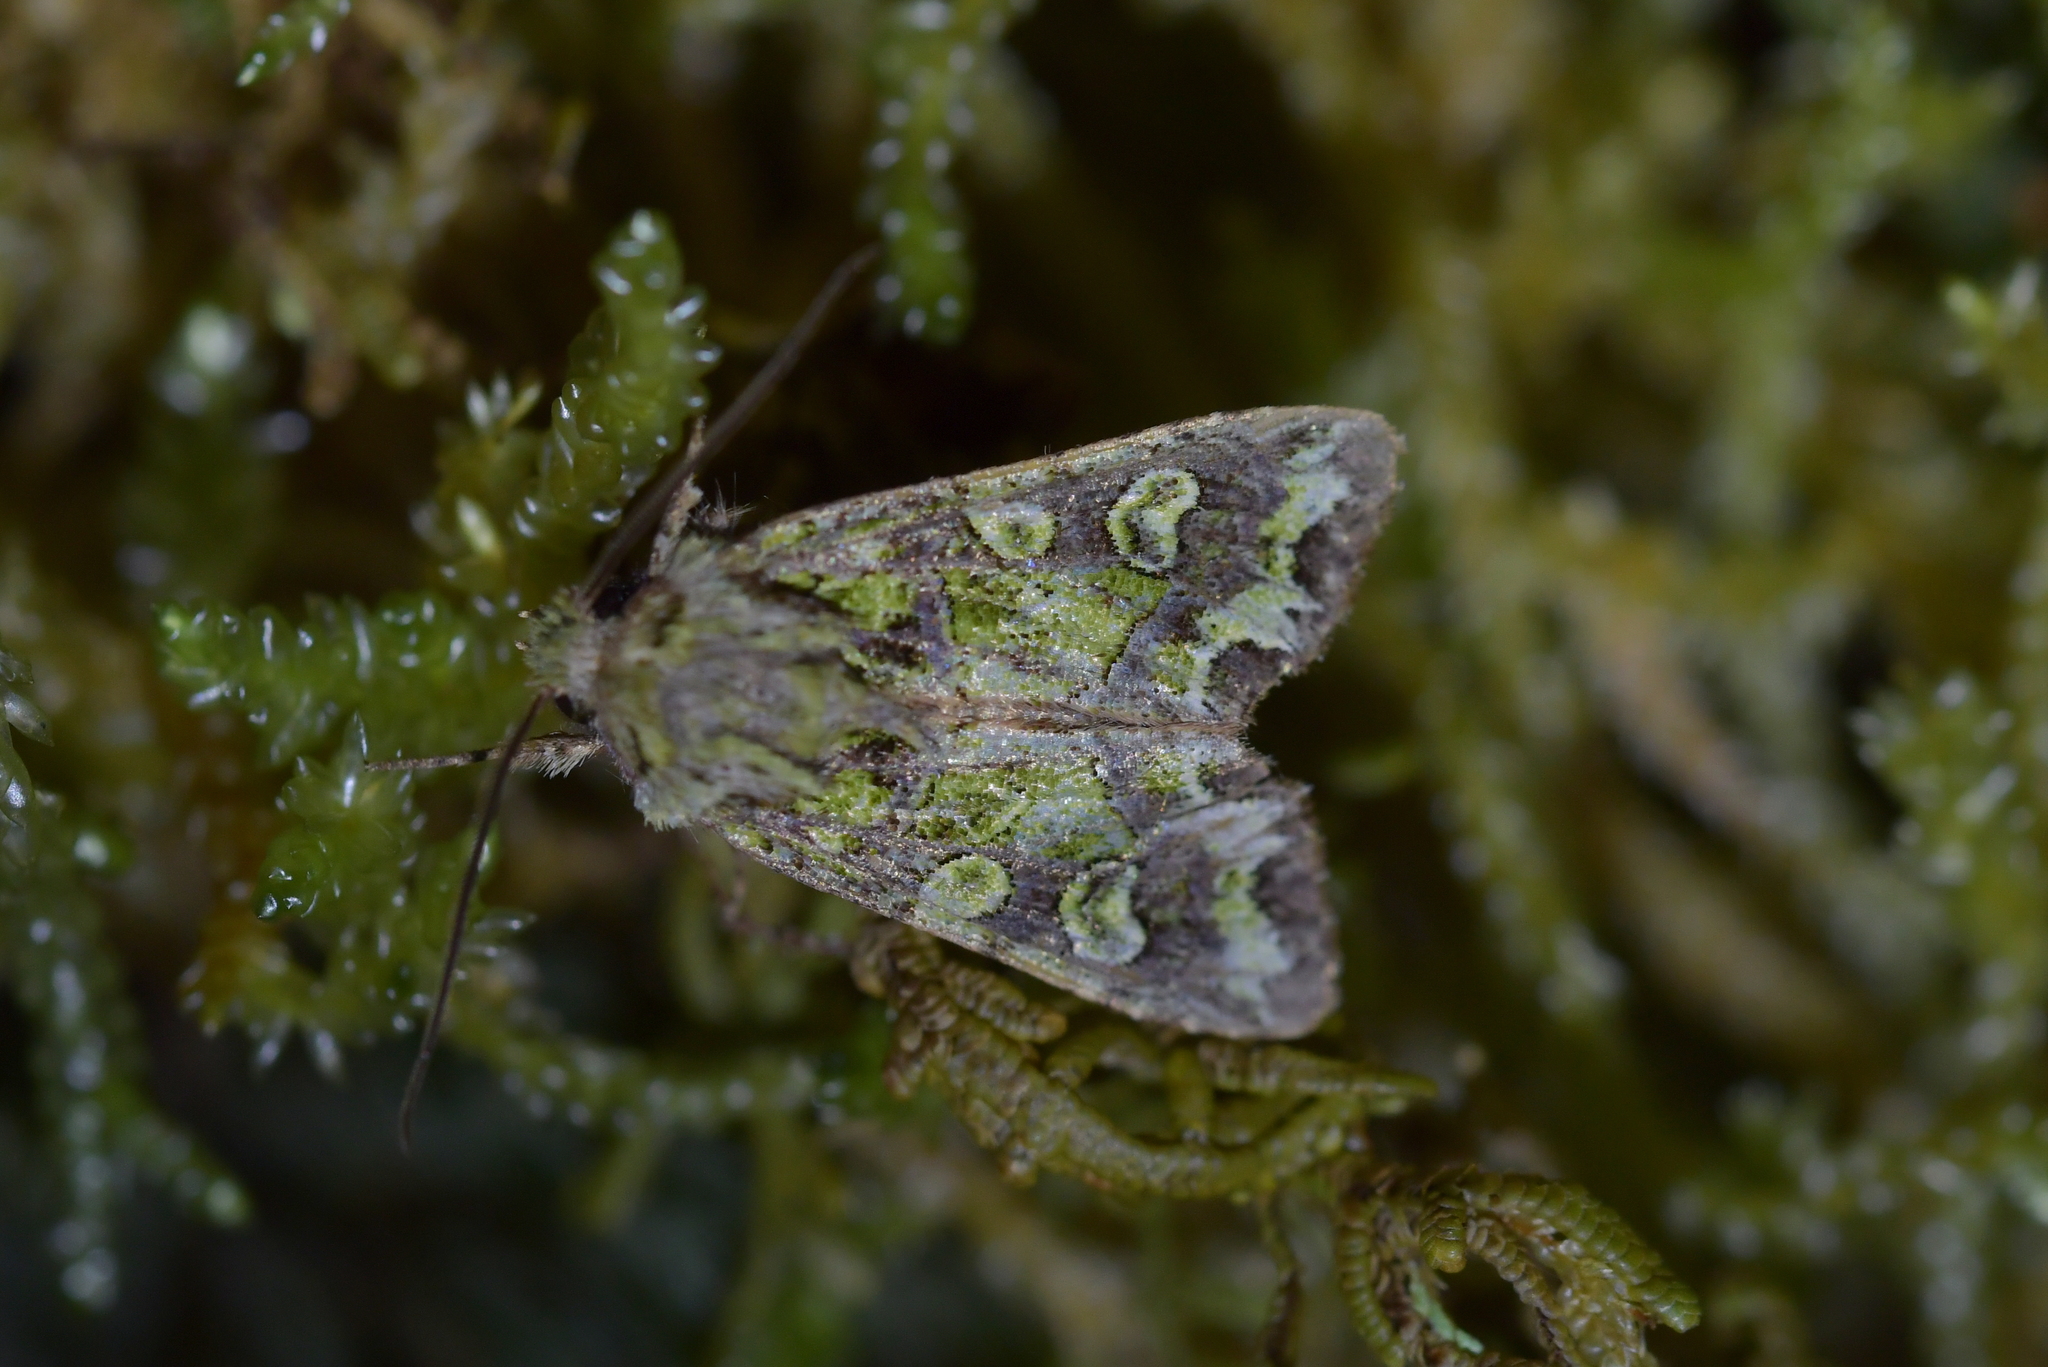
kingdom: Animalia
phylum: Arthropoda
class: Insecta
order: Lepidoptera
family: Noctuidae
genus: Ichneutica
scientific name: Ichneutica chlorodonta
